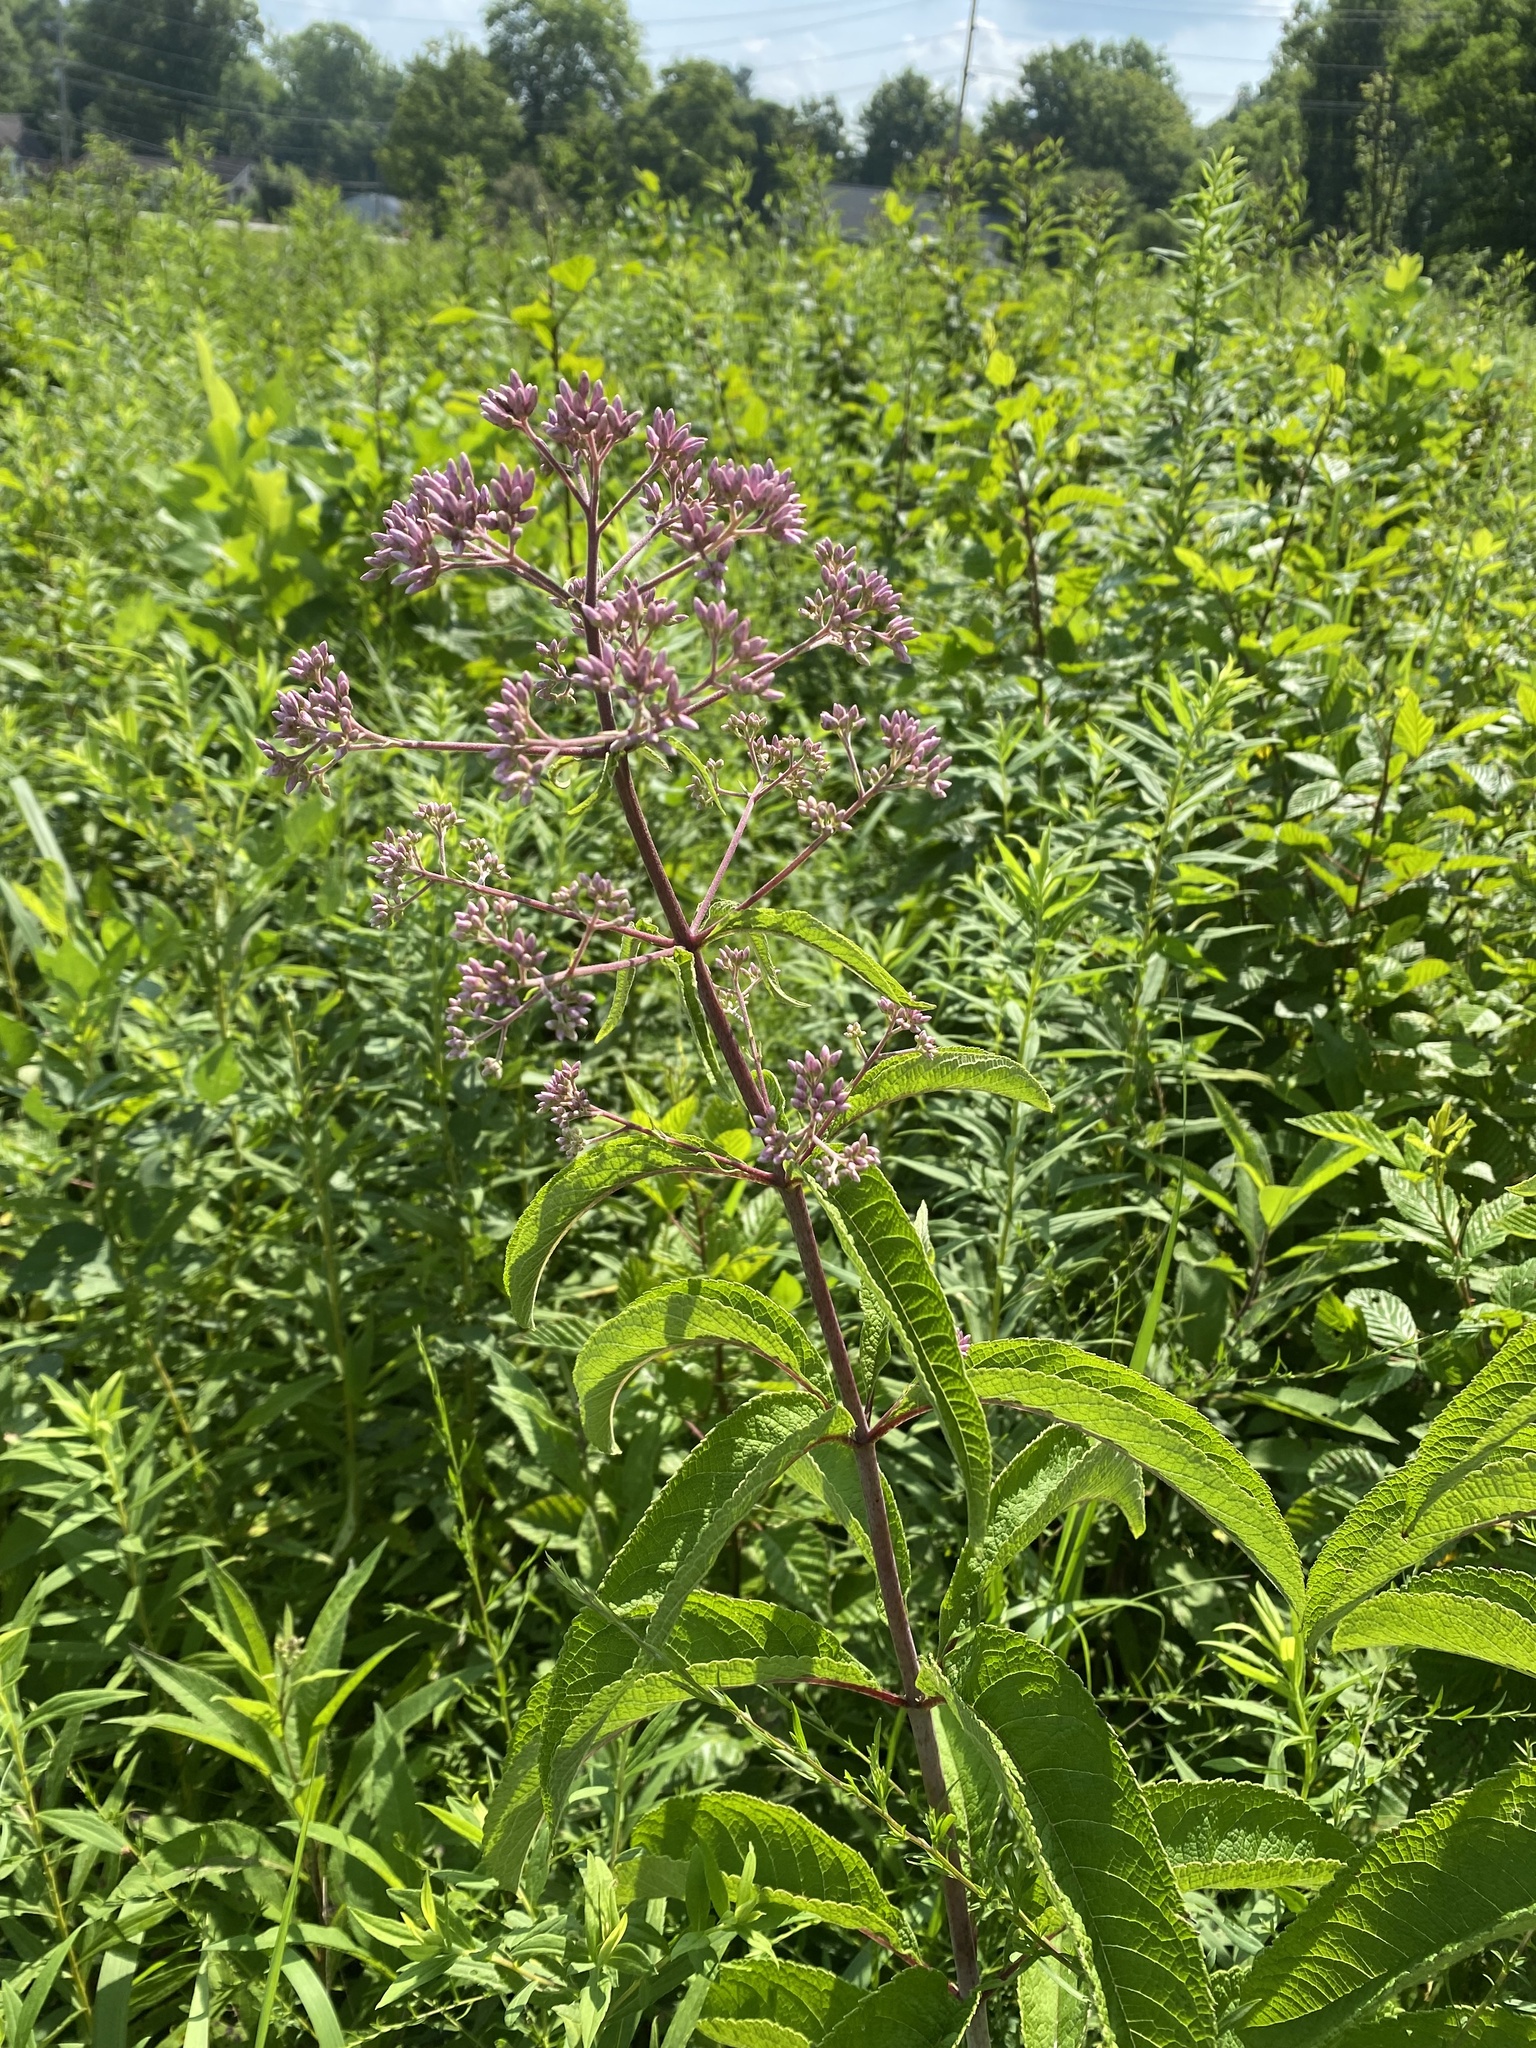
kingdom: Plantae
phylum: Tracheophyta
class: Magnoliopsida
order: Asterales
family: Asteraceae
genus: Eutrochium
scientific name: Eutrochium fistulosum
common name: Trumpetweed
